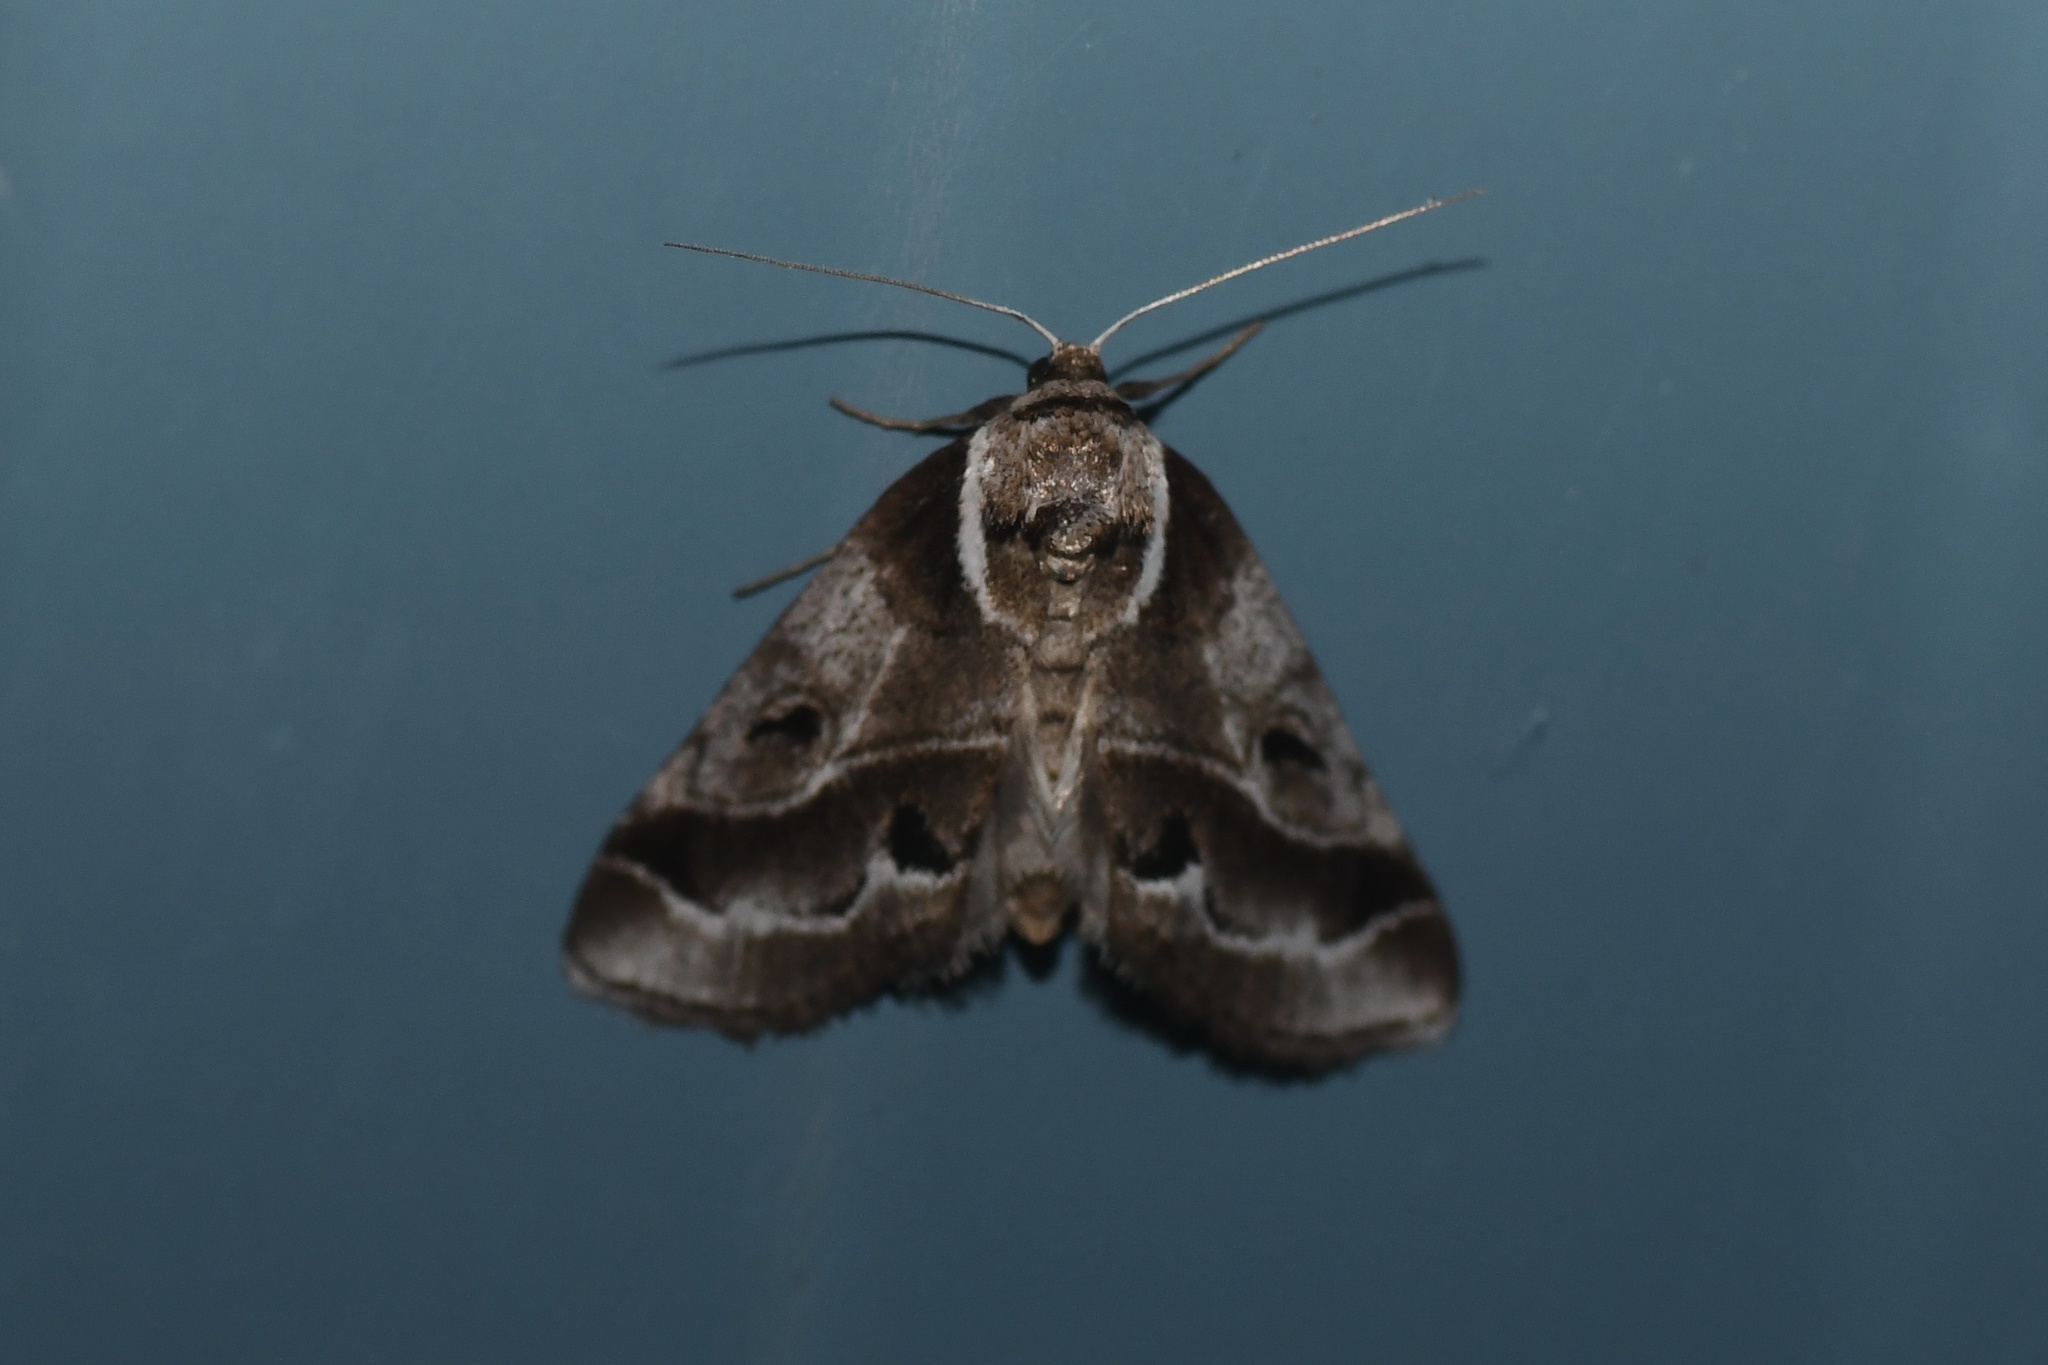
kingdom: Animalia
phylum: Arthropoda
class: Insecta
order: Lepidoptera
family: Nolidae
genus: Baileya
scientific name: Baileya doubledayi
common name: Doubleday's baileya moth
